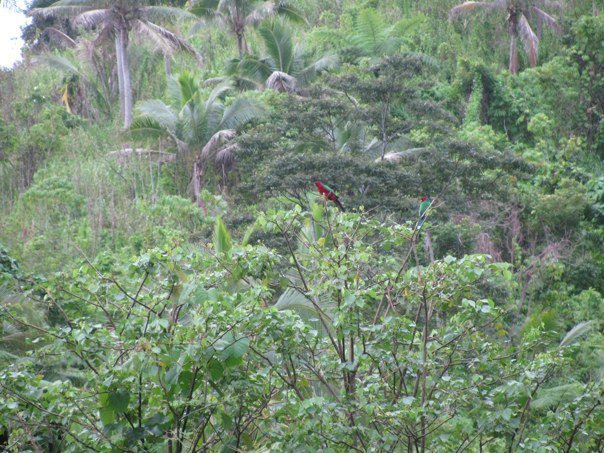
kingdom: Animalia
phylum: Chordata
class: Aves
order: Psittaciformes
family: Psittacidae
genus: Prosopeia
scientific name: Prosopeia splendens
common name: Crimson shining parrot
